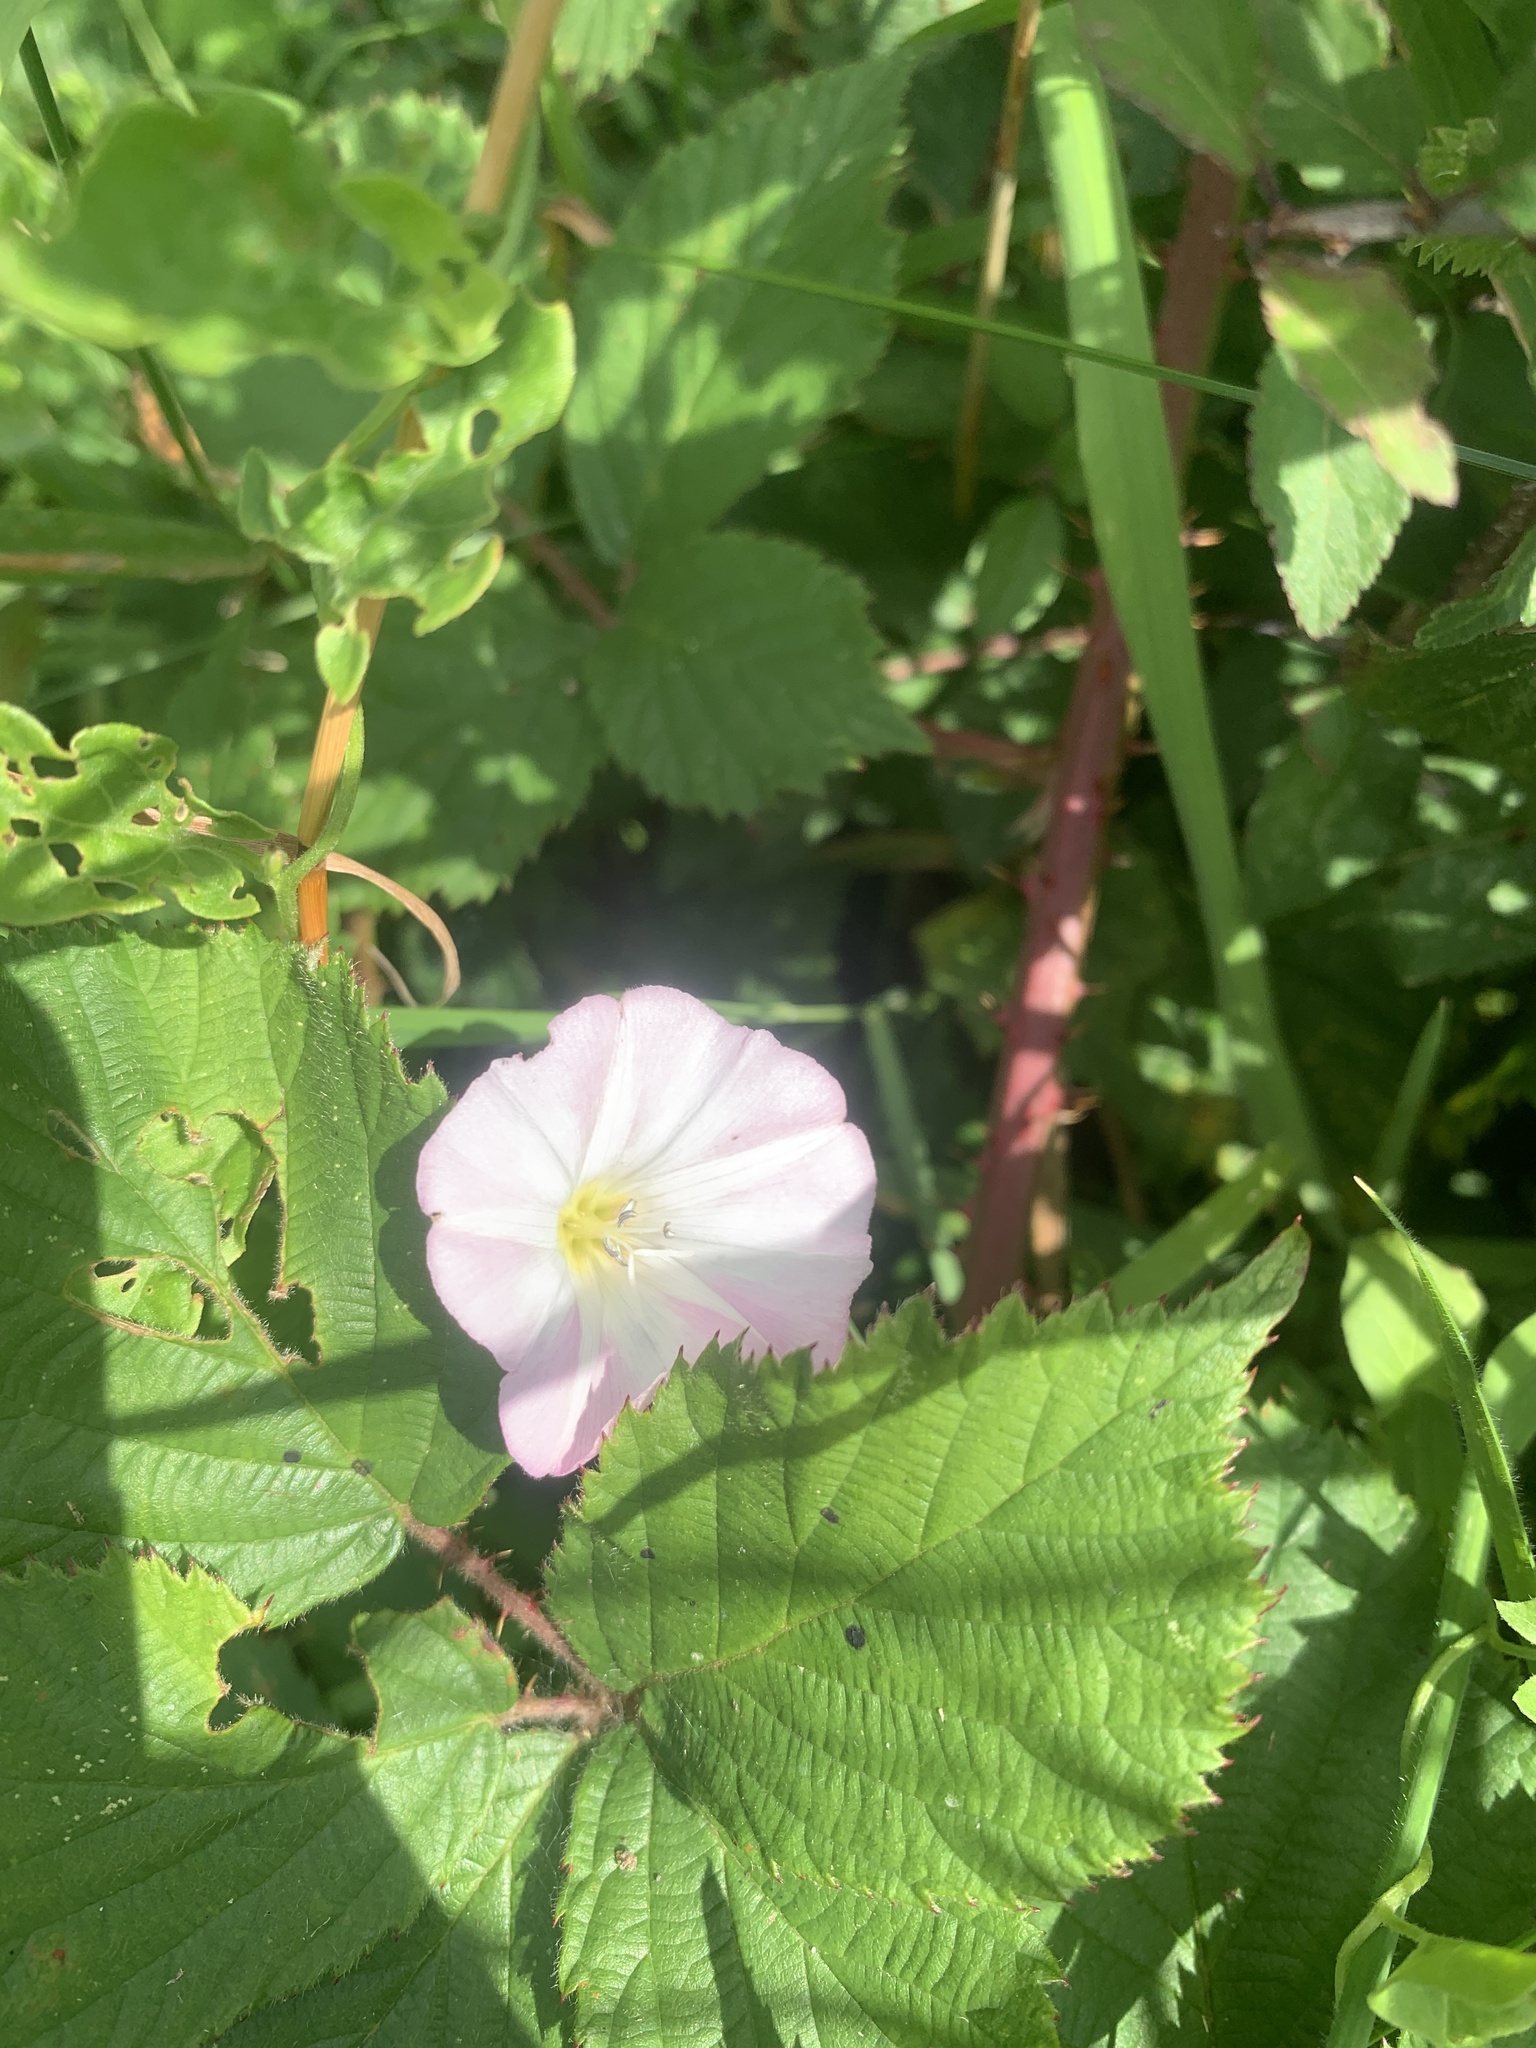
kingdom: Plantae
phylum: Tracheophyta
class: Magnoliopsida
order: Solanales
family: Convolvulaceae
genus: Convolvulus
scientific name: Convolvulus arvensis
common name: Field bindweed
